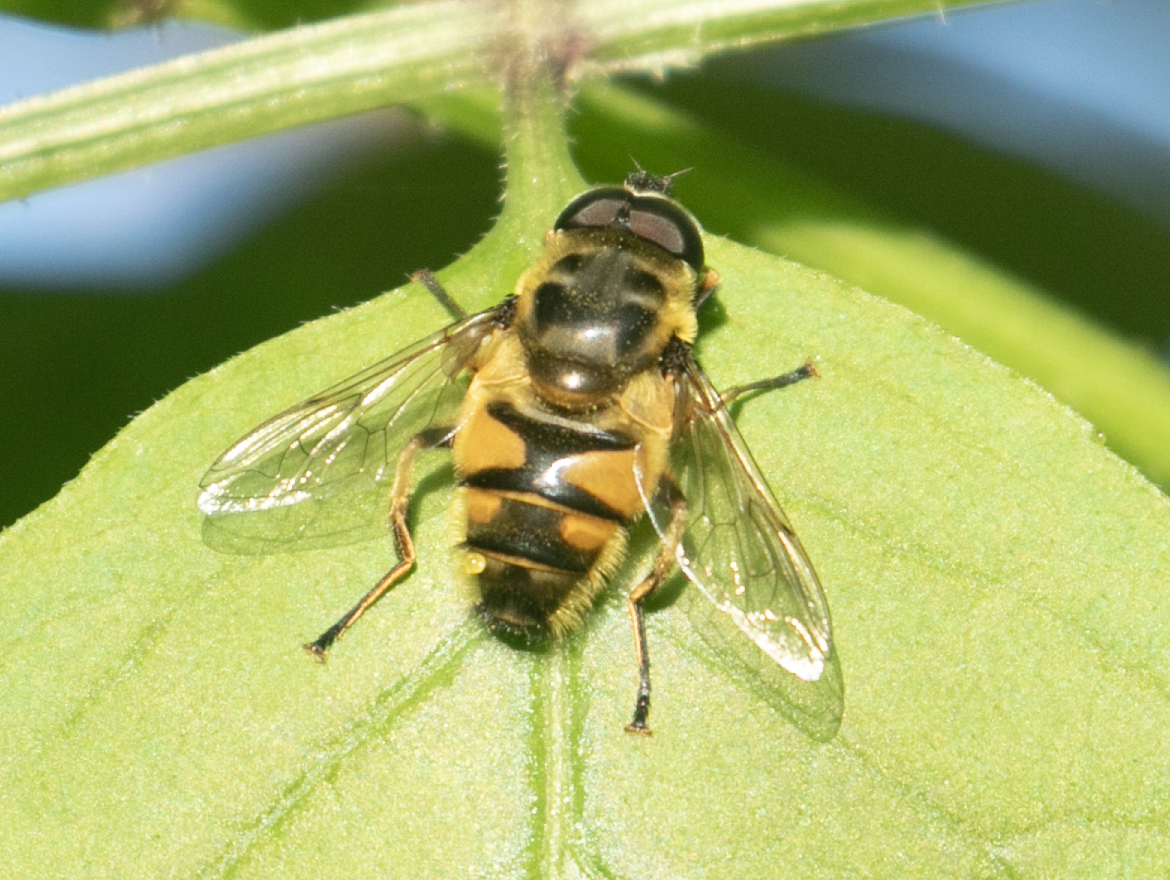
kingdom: Animalia
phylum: Arthropoda
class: Insecta
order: Diptera
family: Syrphidae
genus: Myathropa
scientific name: Myathropa florea
